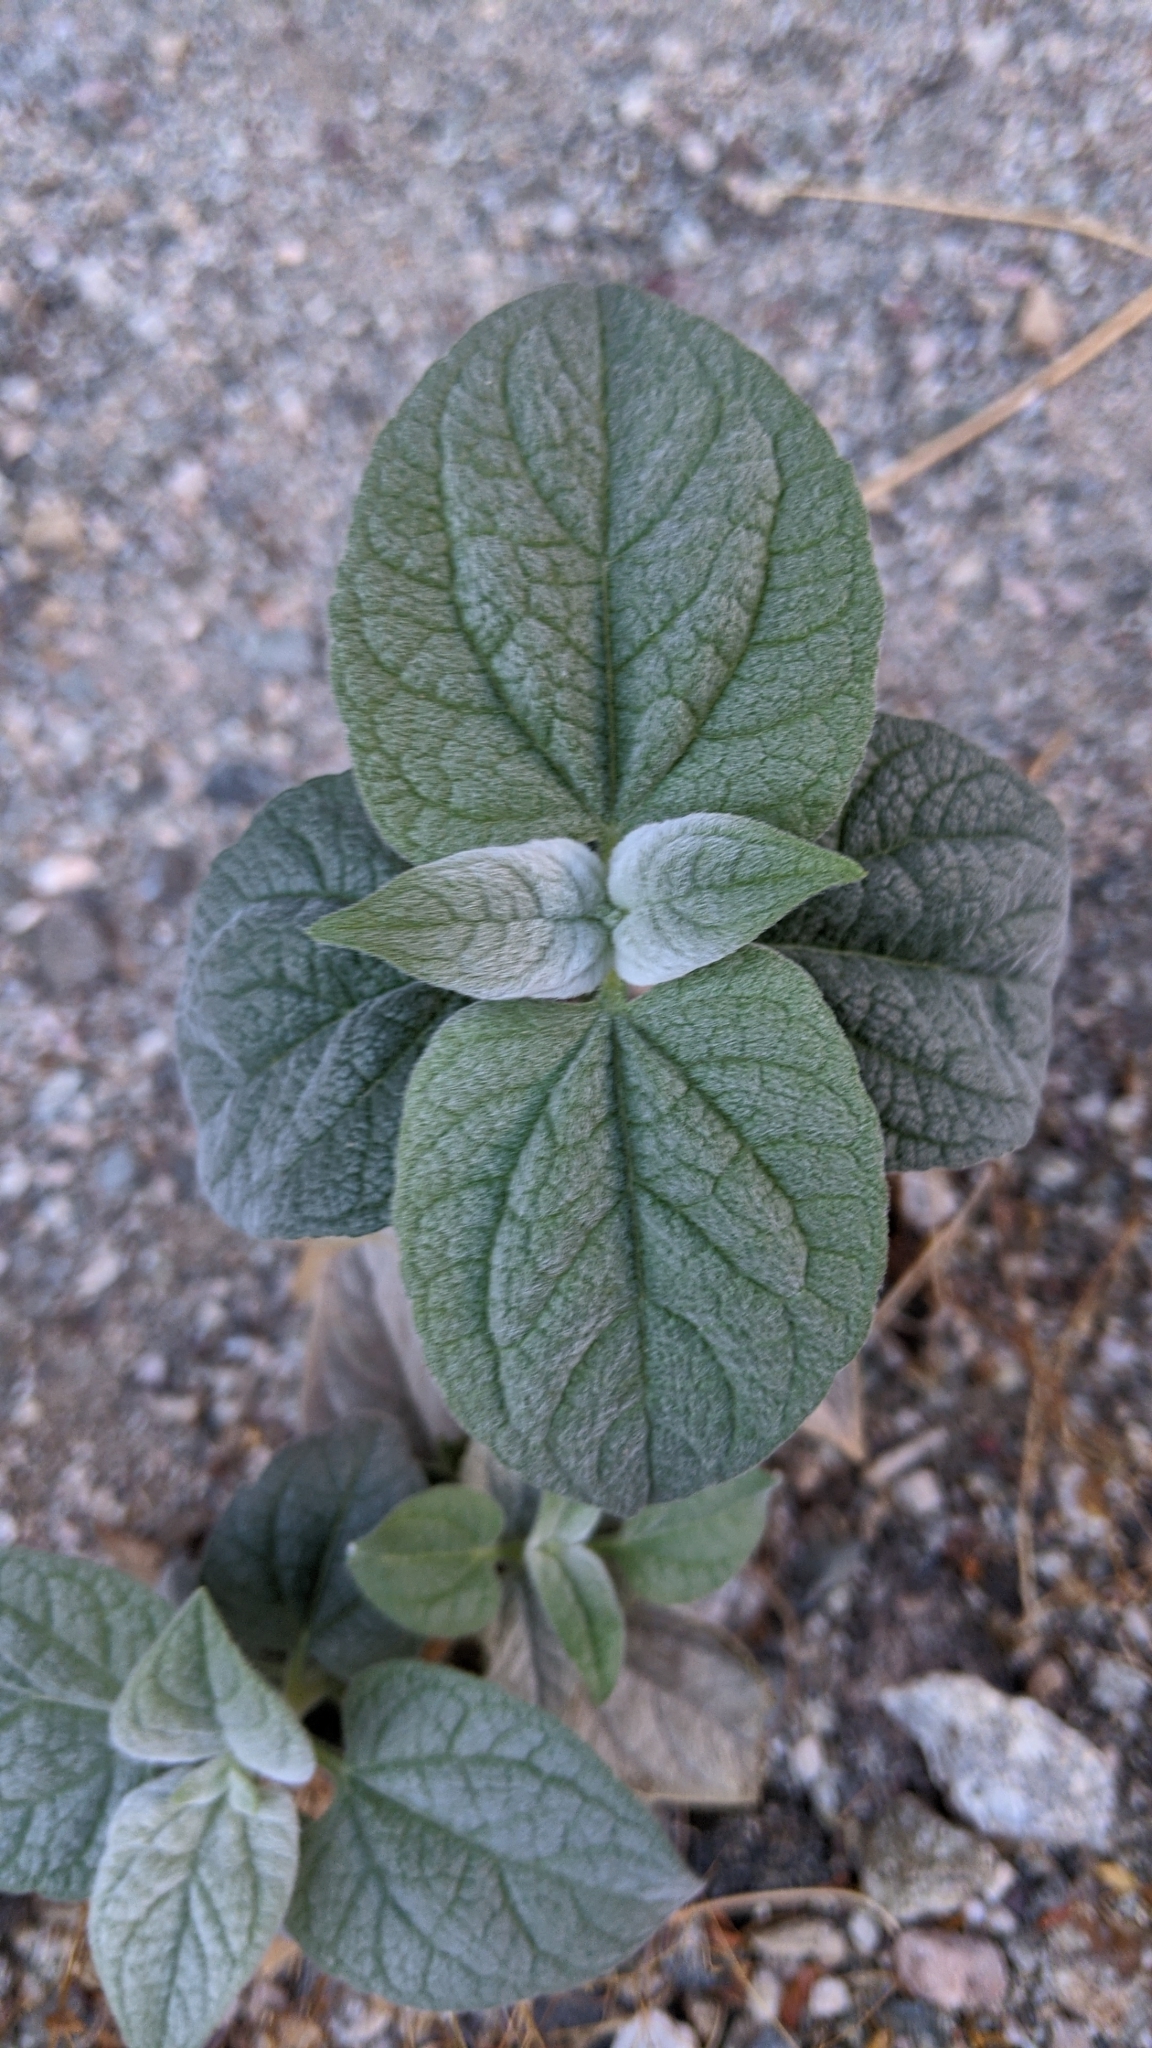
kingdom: Plantae
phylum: Tracheophyta
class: Magnoliopsida
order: Asterales
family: Asteraceae
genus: Bahiopsis
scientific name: Bahiopsis reticulata
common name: Death valley goldeneye
